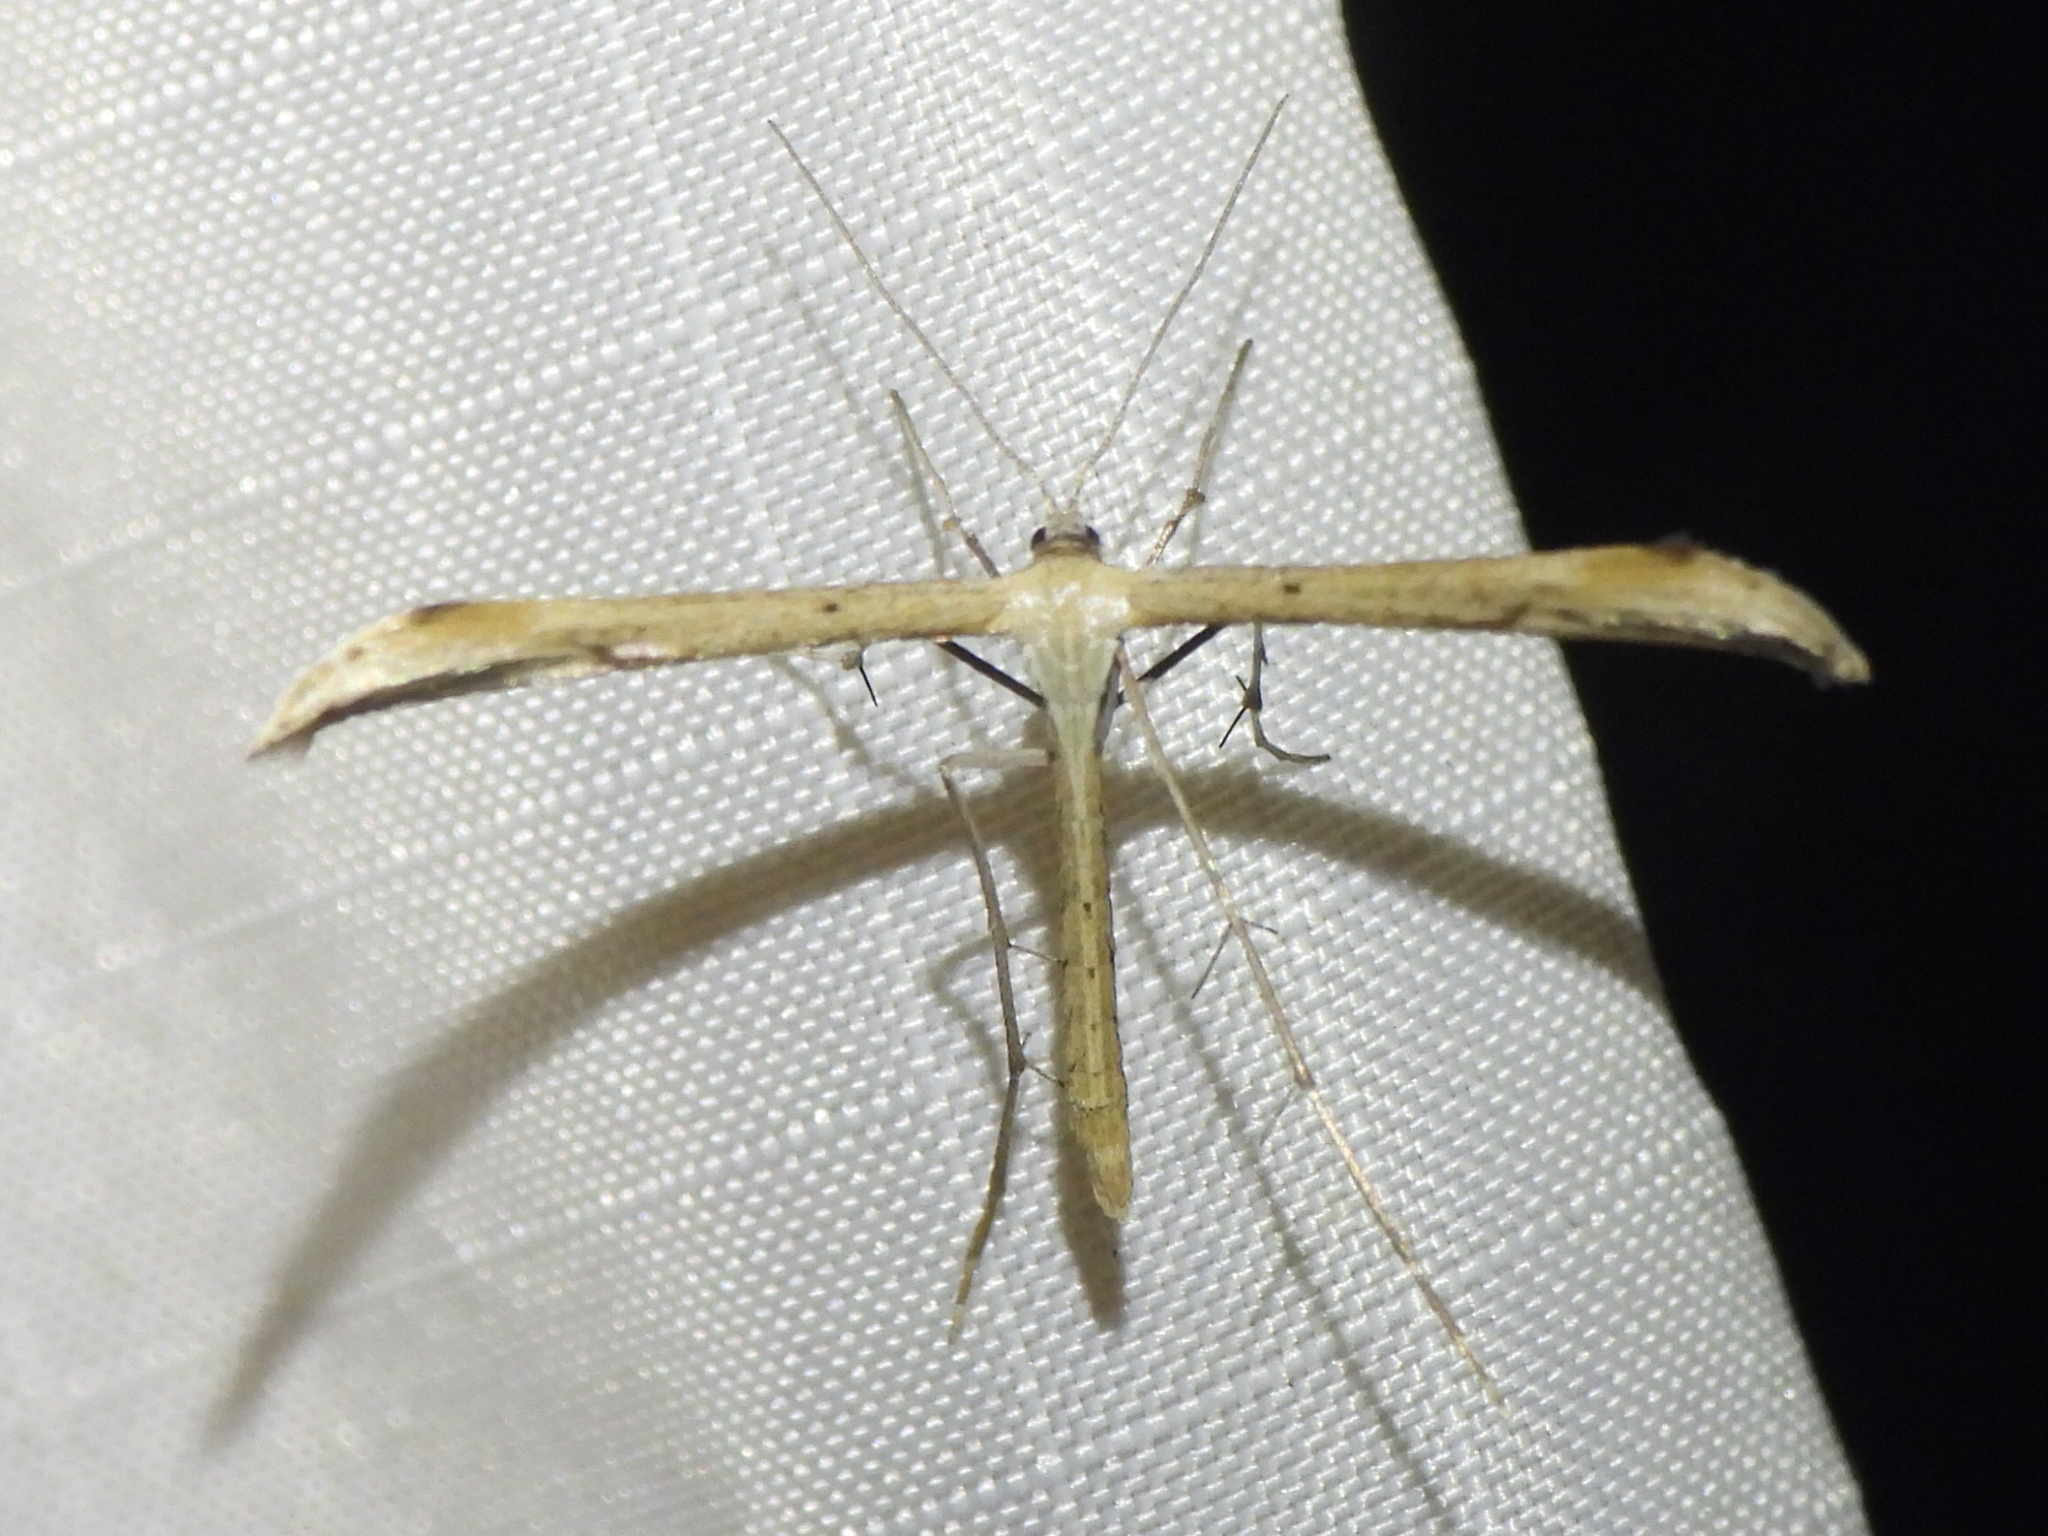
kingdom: Animalia
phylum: Arthropoda
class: Insecta
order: Lepidoptera
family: Pterophoridae
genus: Emmelina
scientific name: Emmelina monodactyla
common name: Common plume
